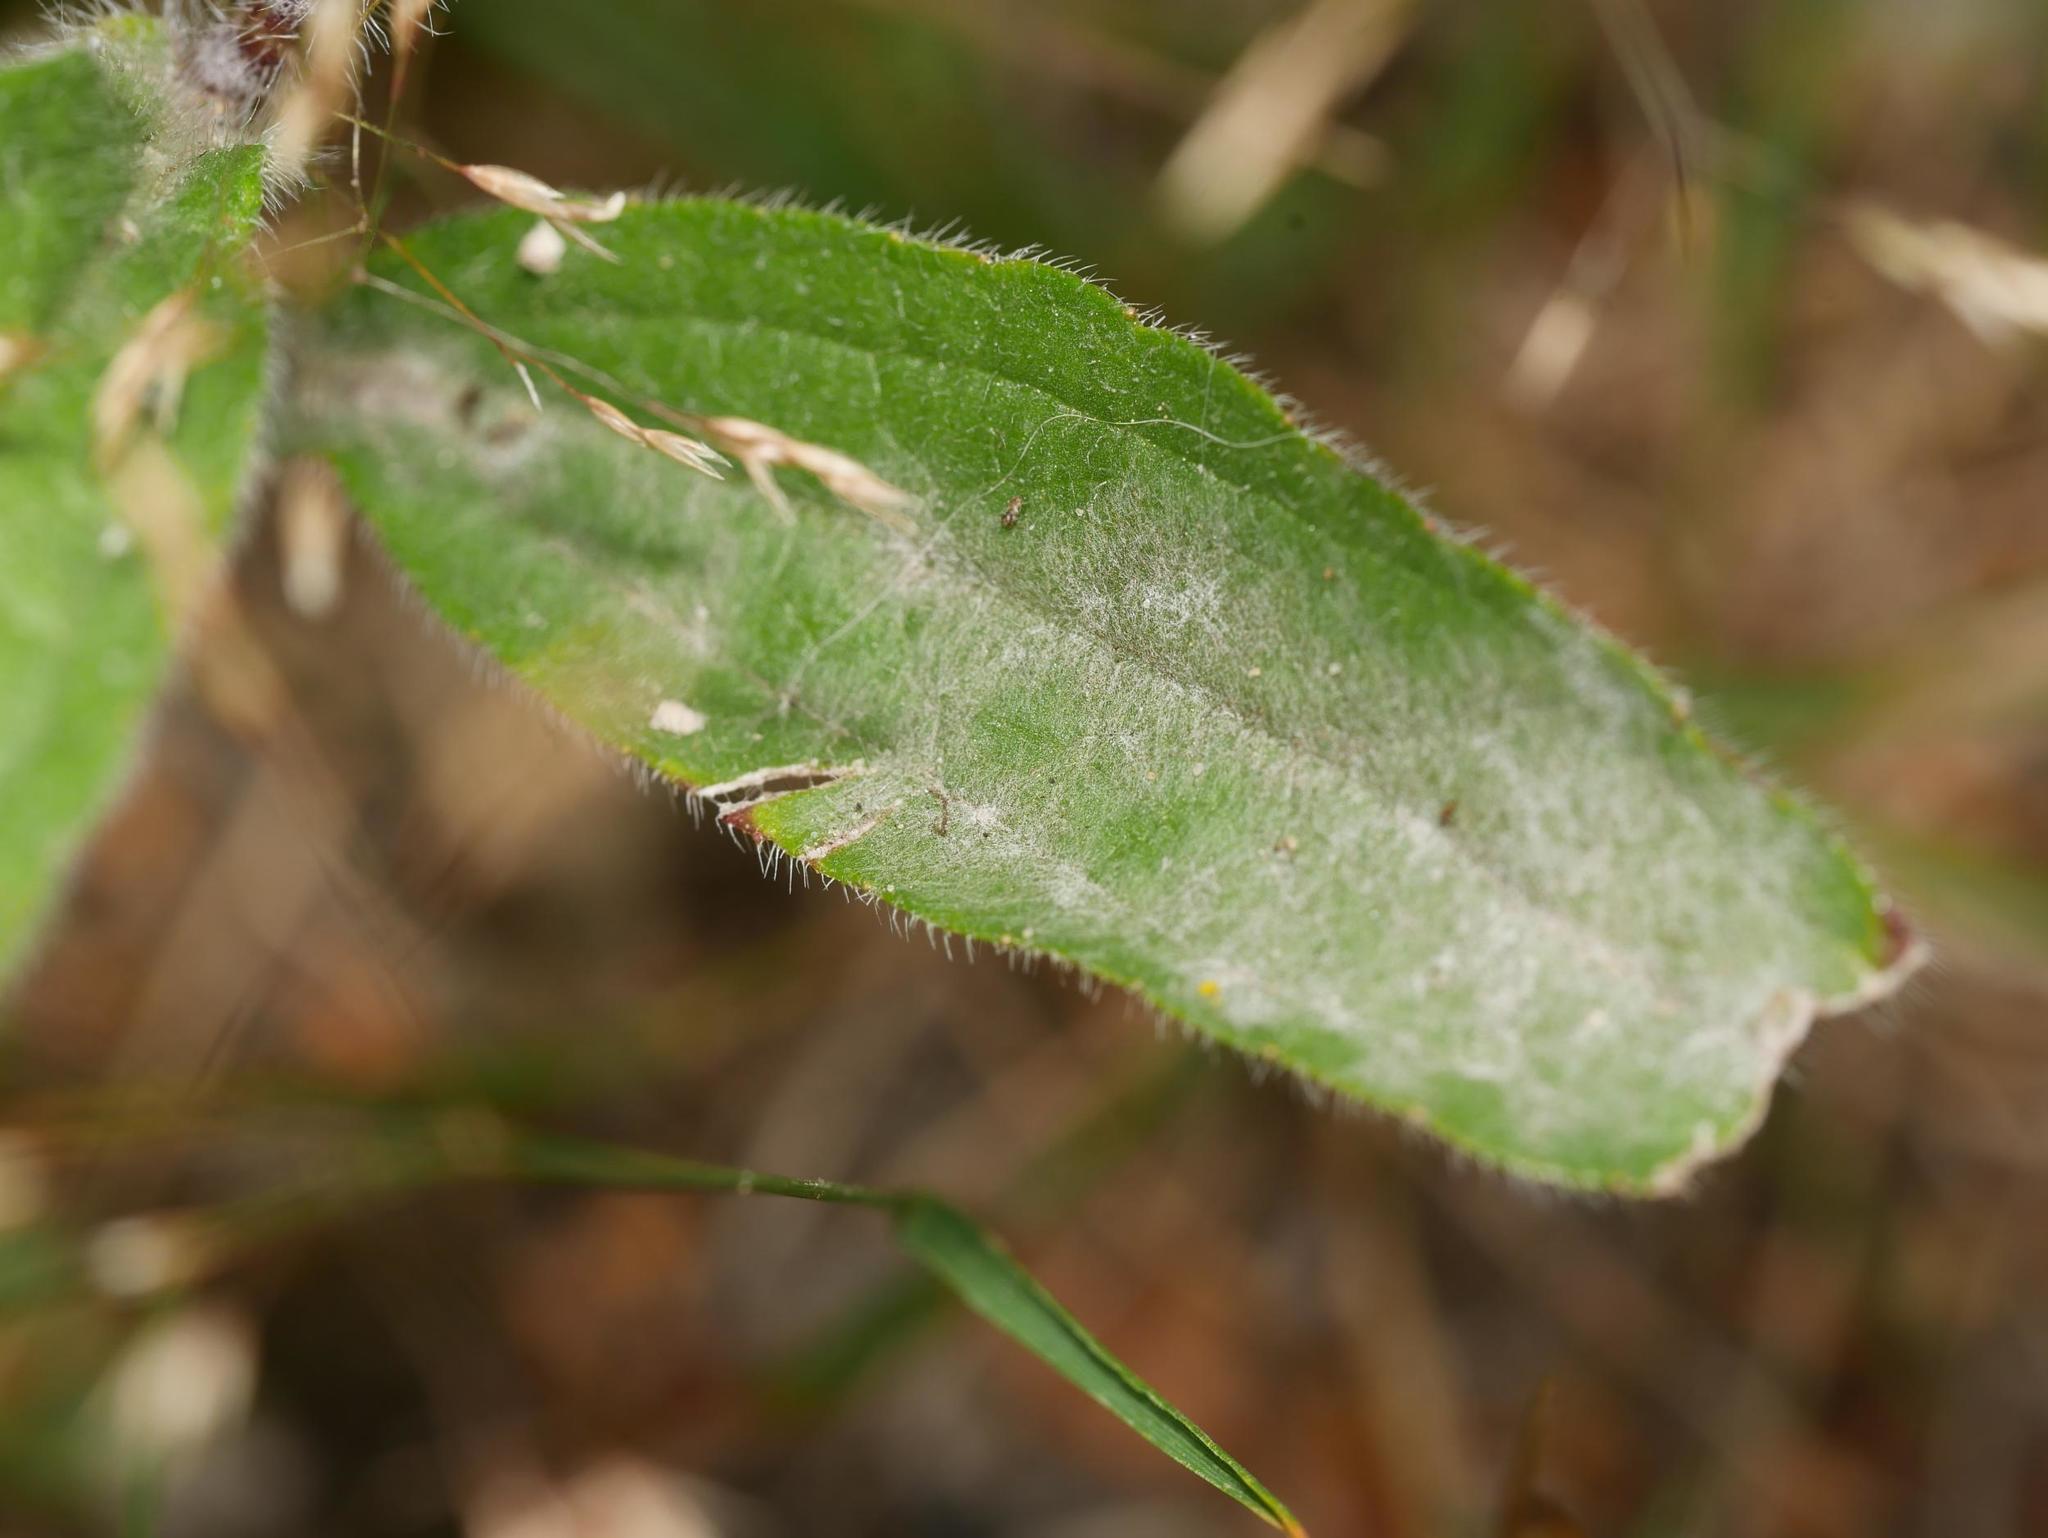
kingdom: Fungi
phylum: Ascomycota
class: Leotiomycetes
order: Helotiales
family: Erysiphaceae
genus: Golovinomyces
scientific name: Golovinomyces ambrosiae
